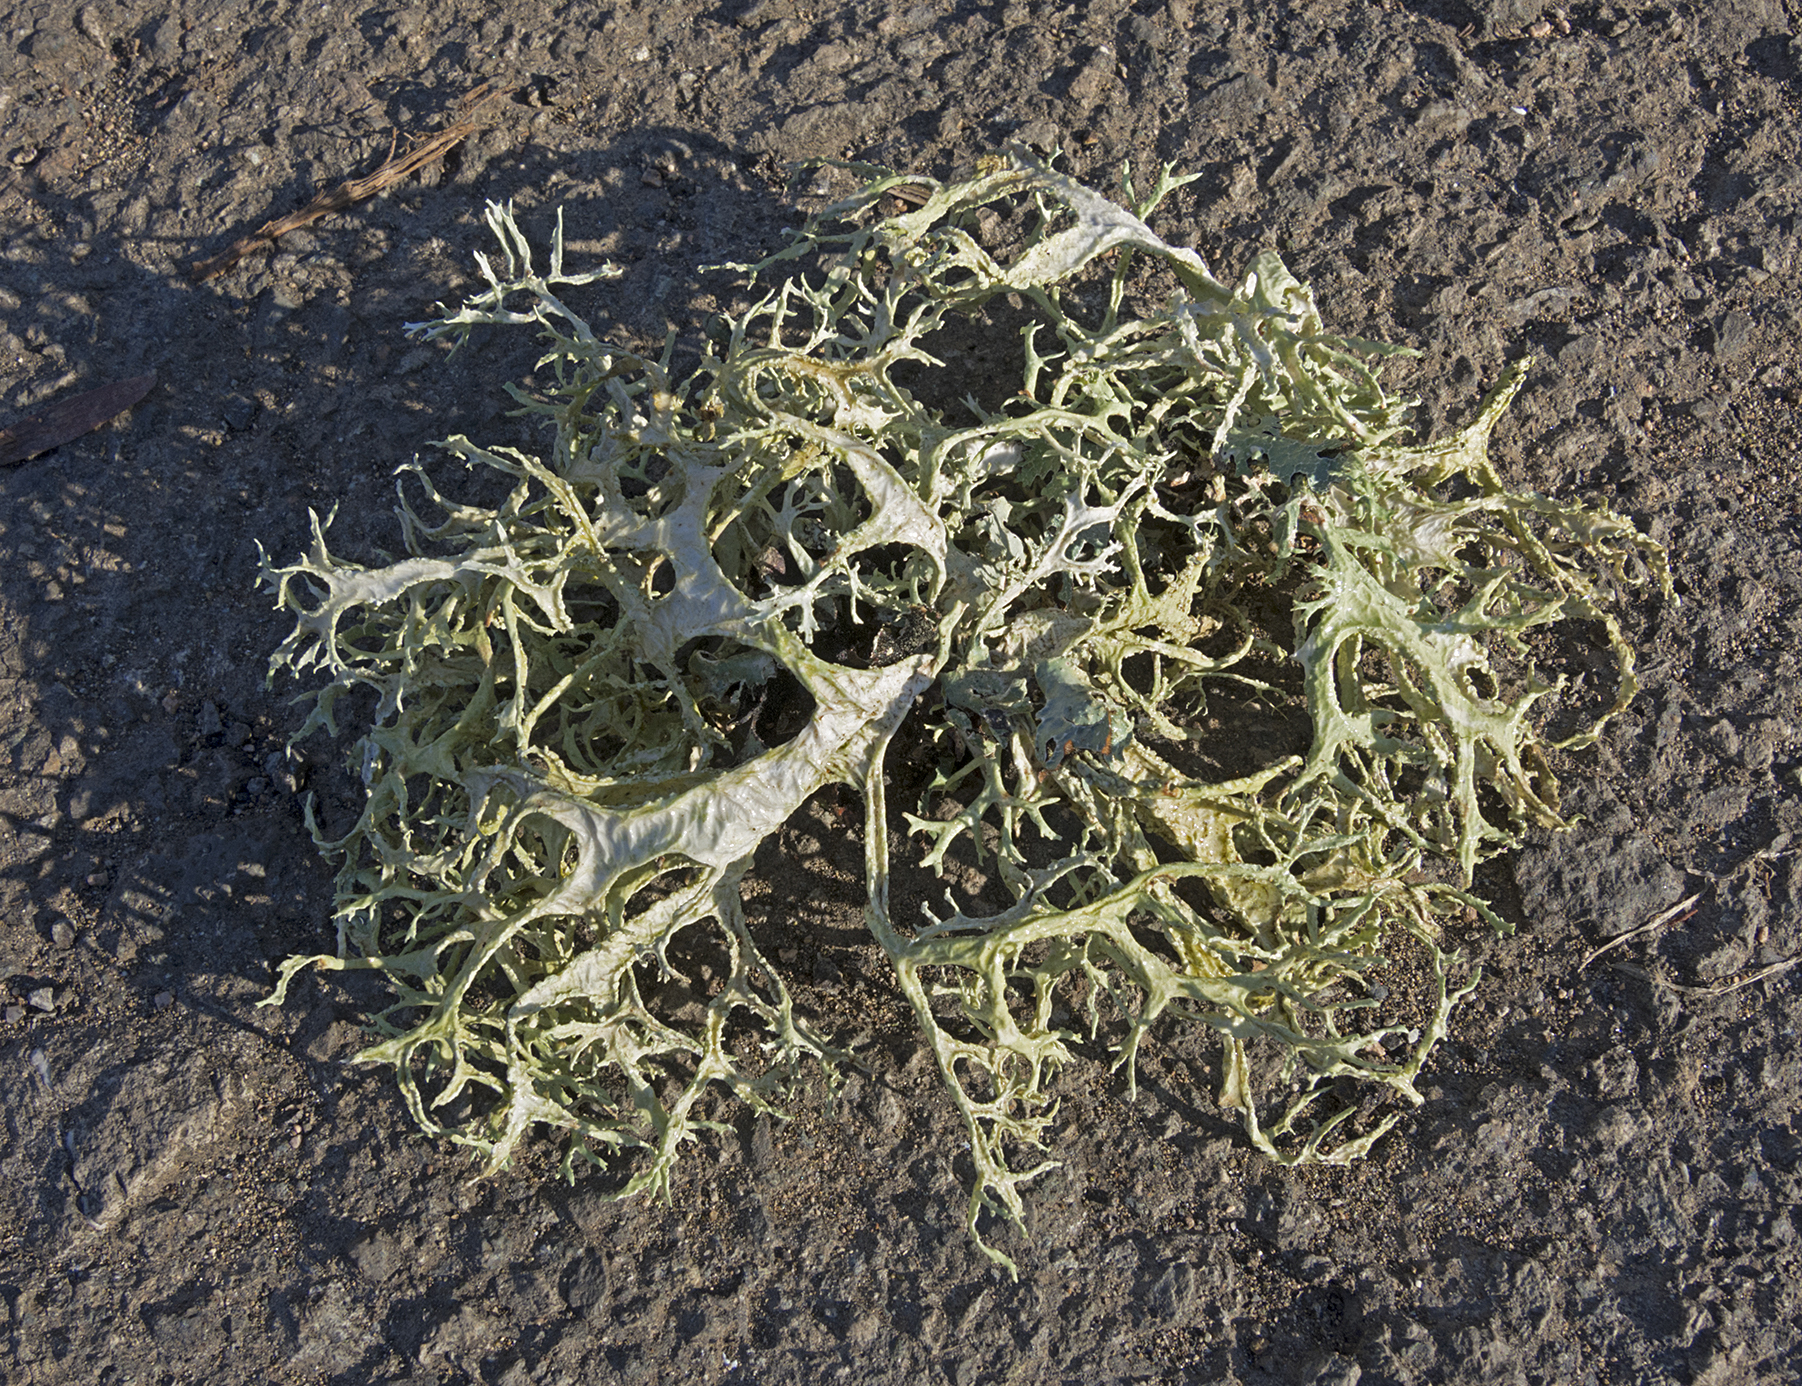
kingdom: Fungi
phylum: Ascomycota
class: Lecanoromycetes
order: Lecanorales
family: Parmeliaceae
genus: Evernia
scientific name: Evernia prunastri
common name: Oak moss
